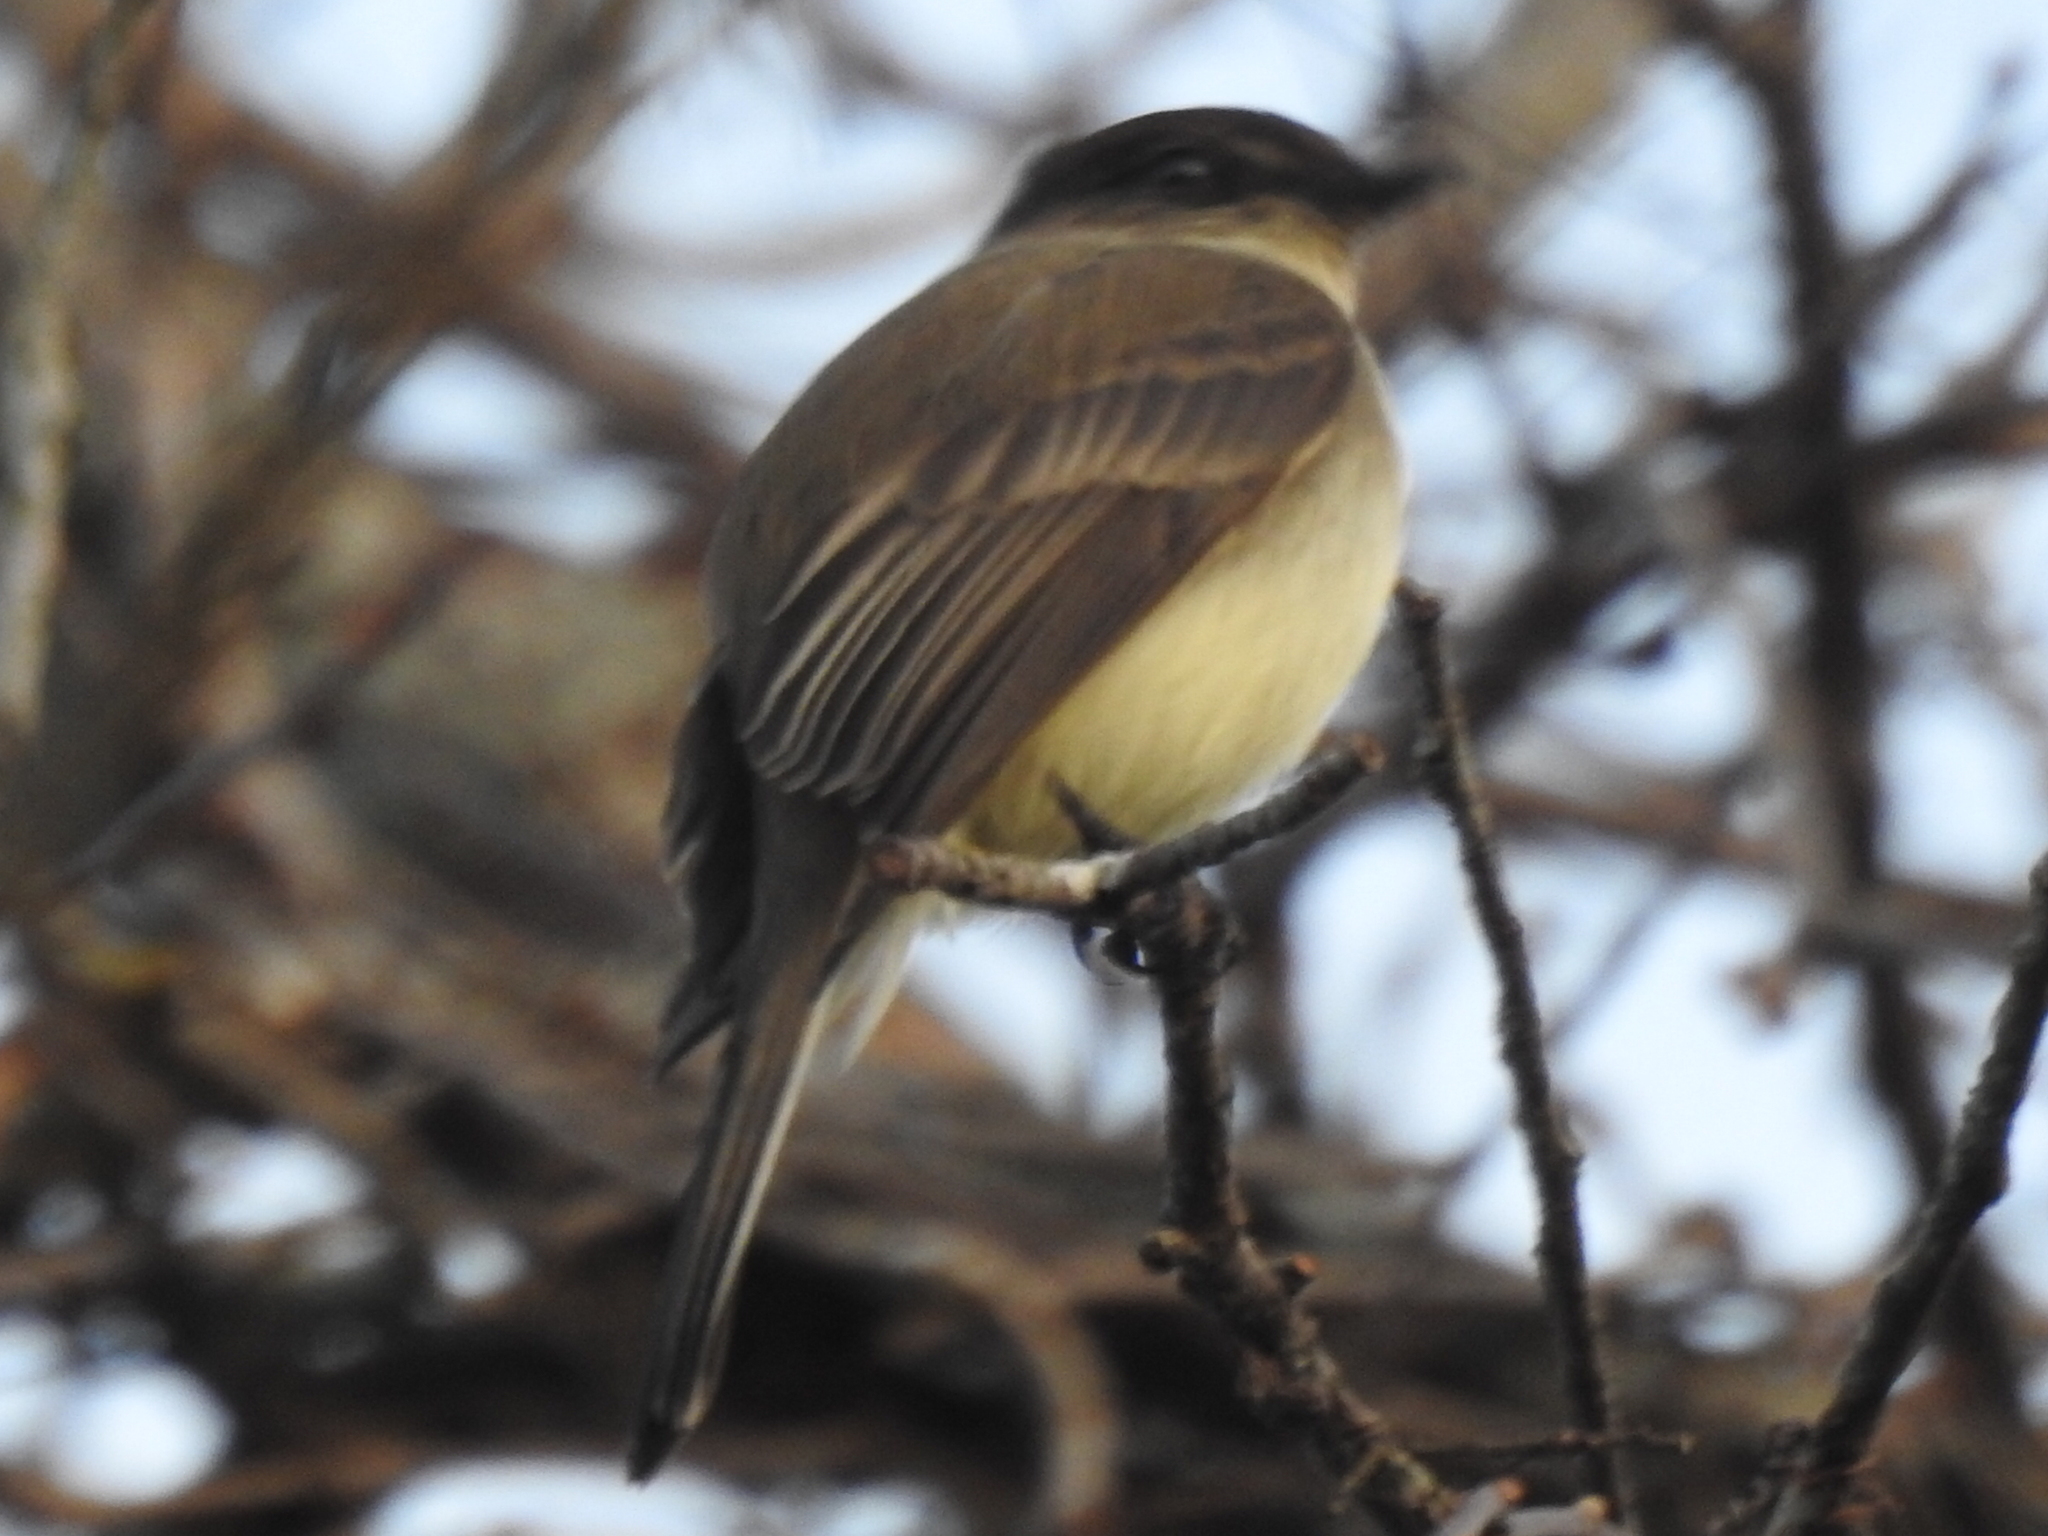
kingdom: Animalia
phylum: Chordata
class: Aves
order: Passeriformes
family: Tyrannidae
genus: Sayornis
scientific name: Sayornis phoebe
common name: Eastern phoebe
